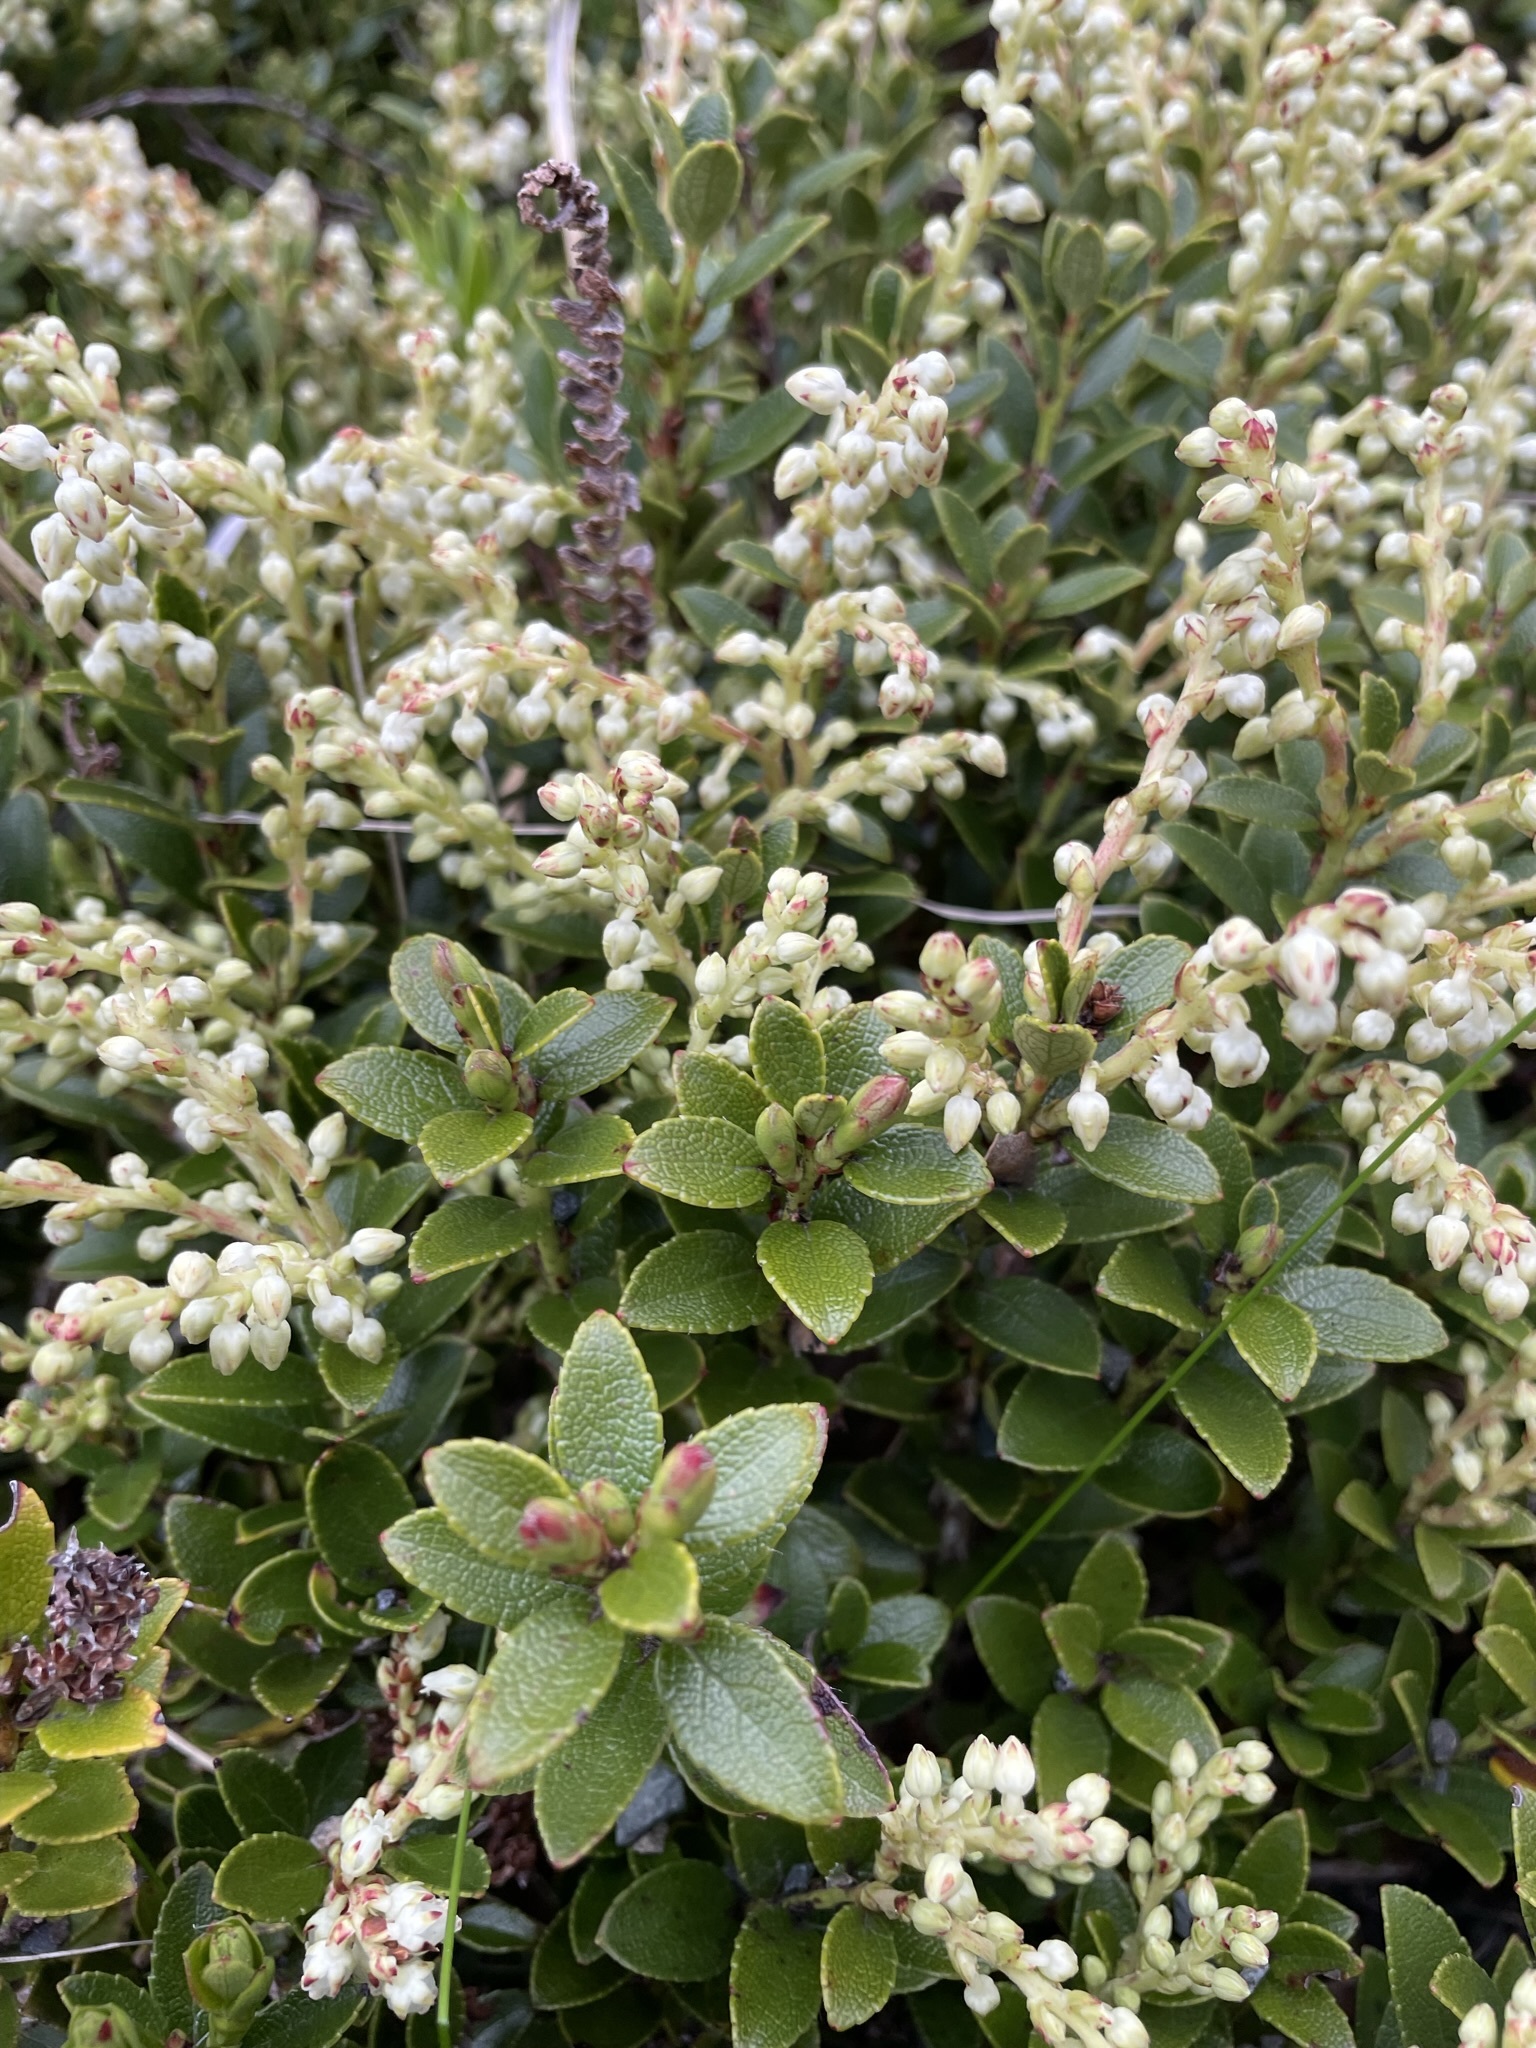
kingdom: Plantae
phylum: Tracheophyta
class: Magnoliopsida
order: Ericales
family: Ericaceae
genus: Gaultheria
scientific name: Gaultheria crassa
